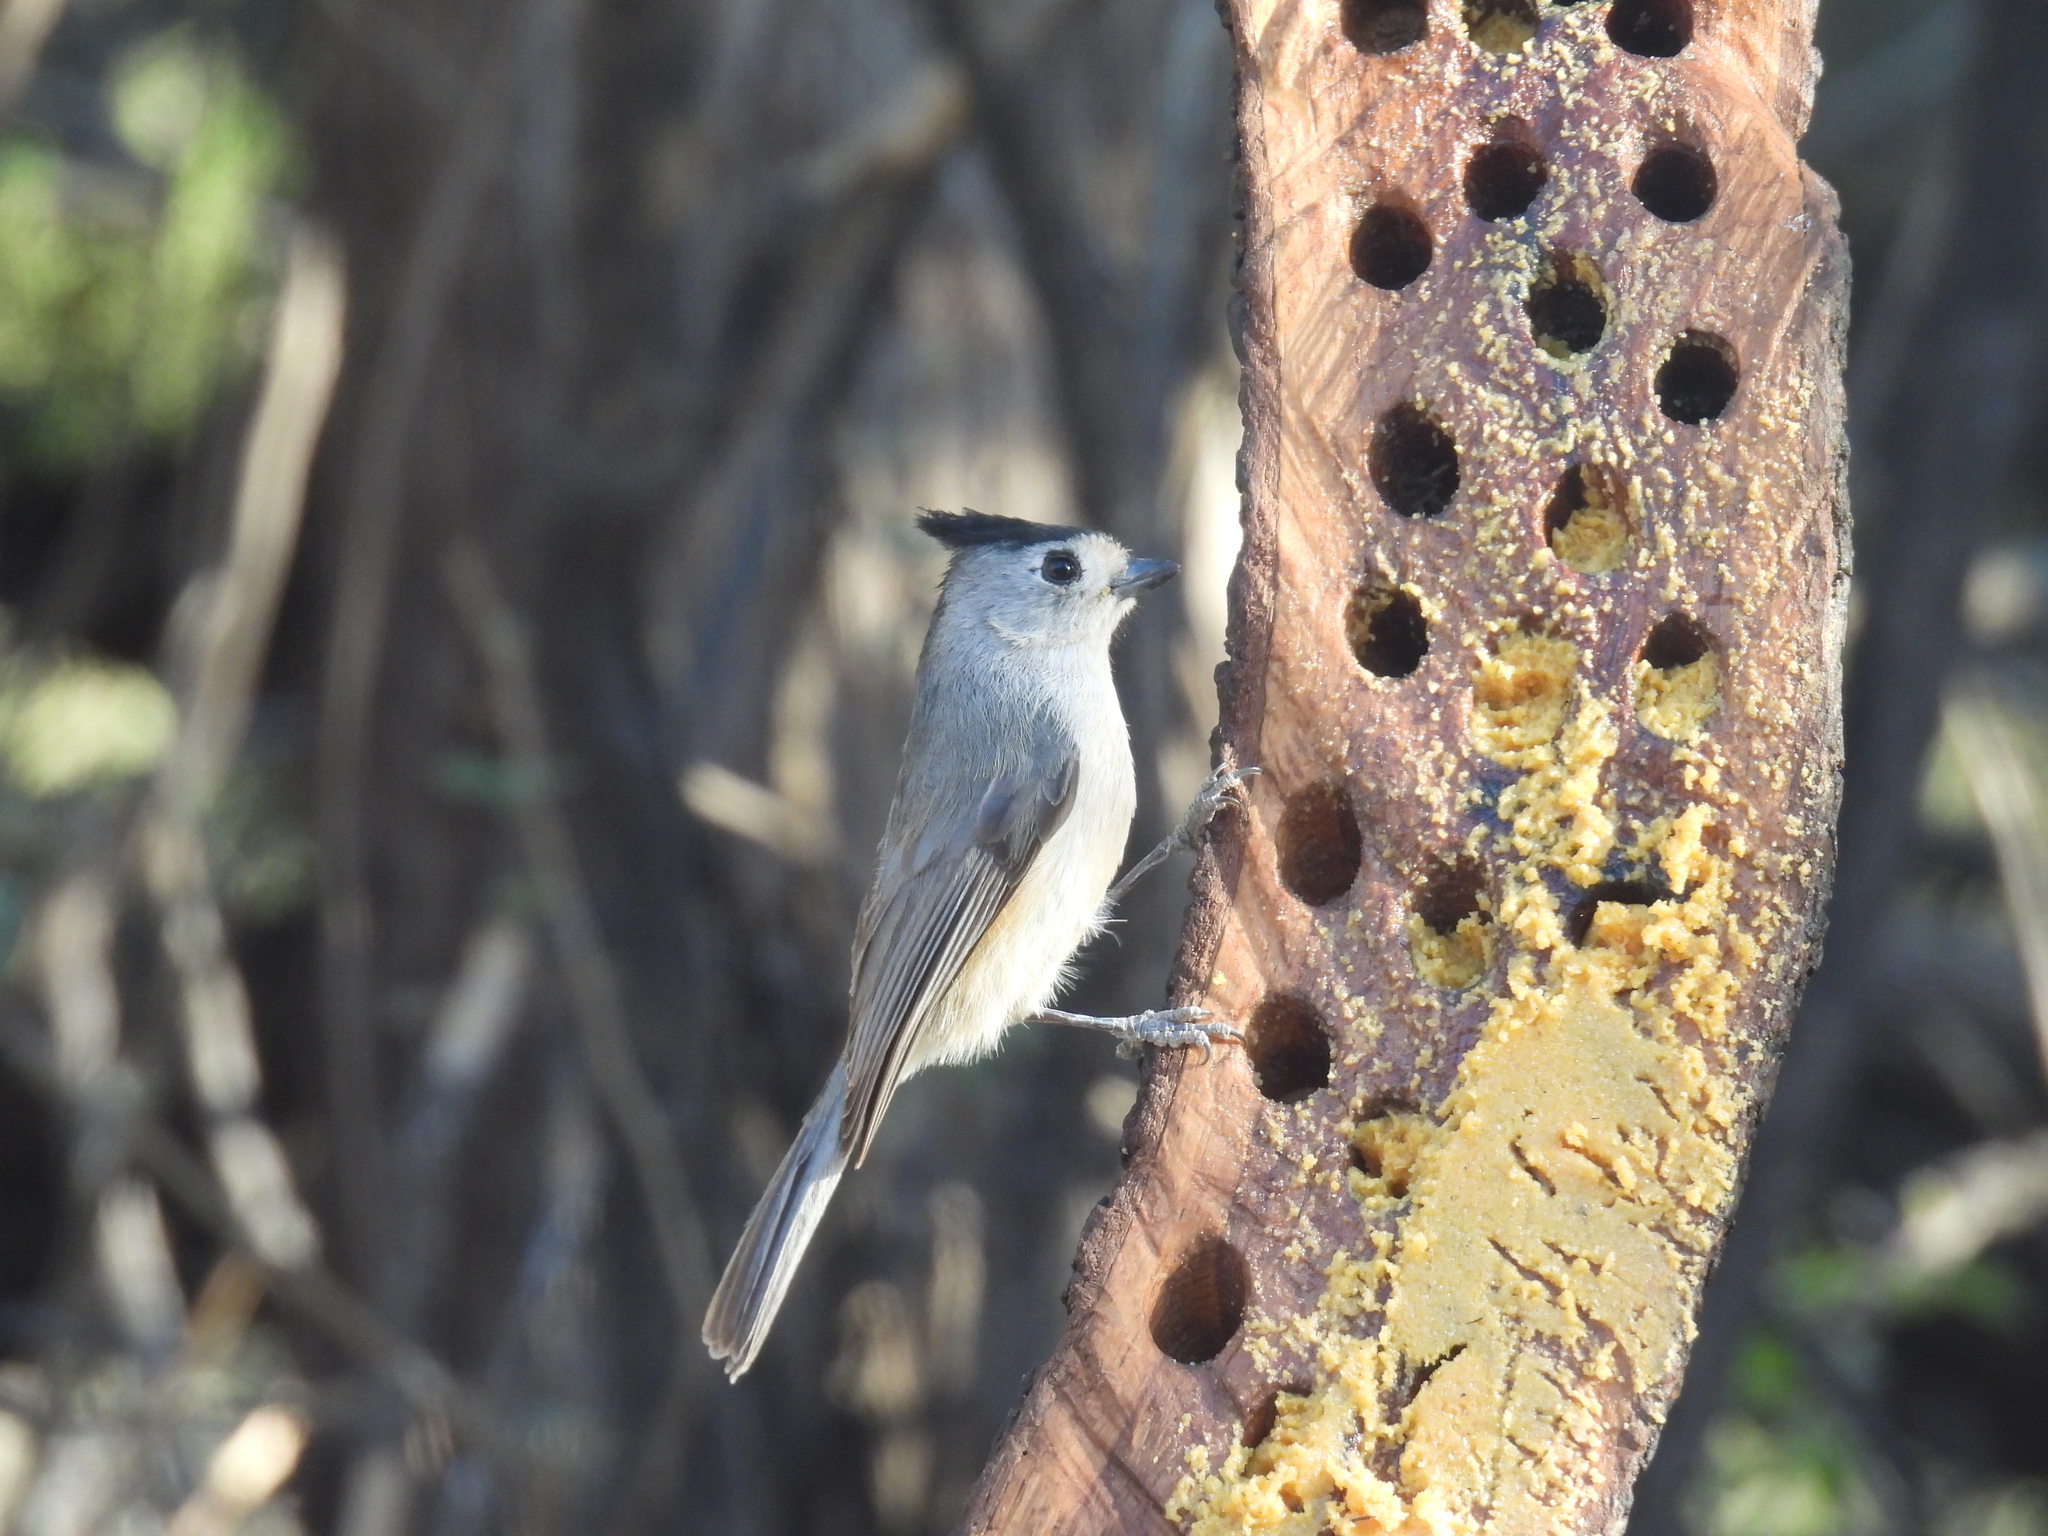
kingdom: Animalia
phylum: Chordata
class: Aves
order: Passeriformes
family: Paridae
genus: Baeolophus
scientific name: Baeolophus atricristatus
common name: Black-crested titmouse
